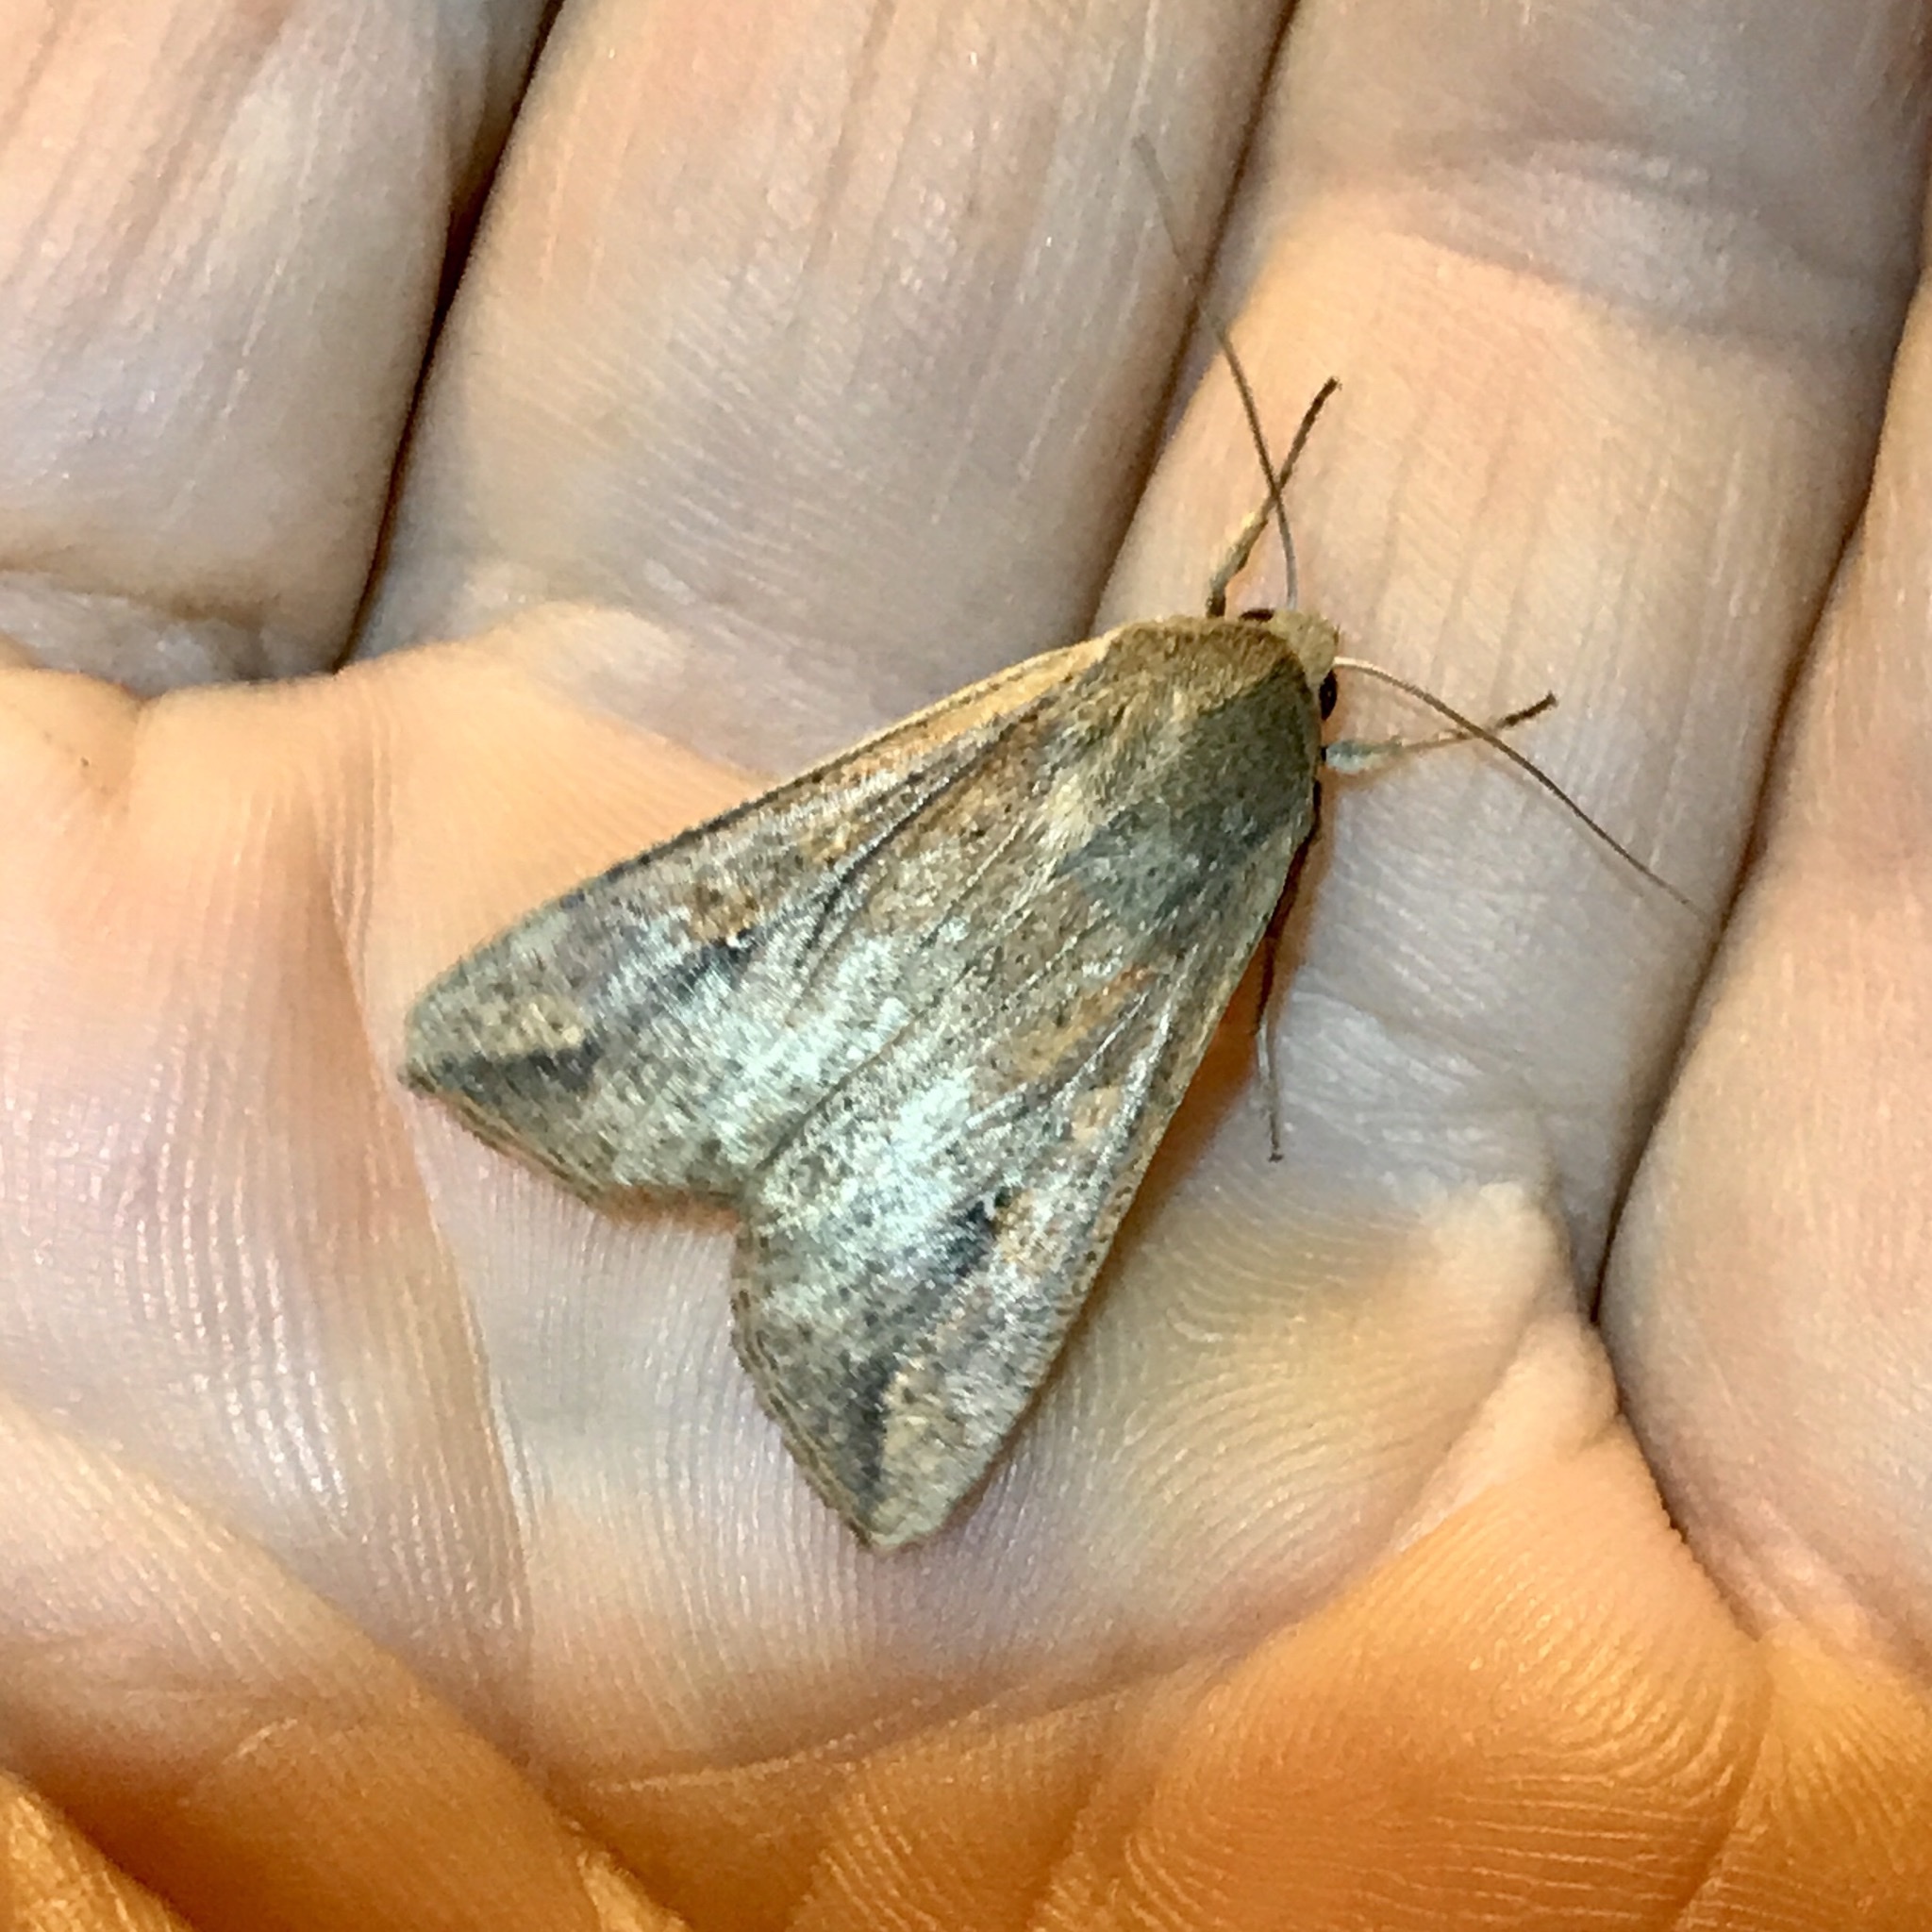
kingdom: Animalia
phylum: Arthropoda
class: Insecta
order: Lepidoptera
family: Noctuidae
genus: Mythimna
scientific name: Mythimna unipuncta
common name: White-speck
